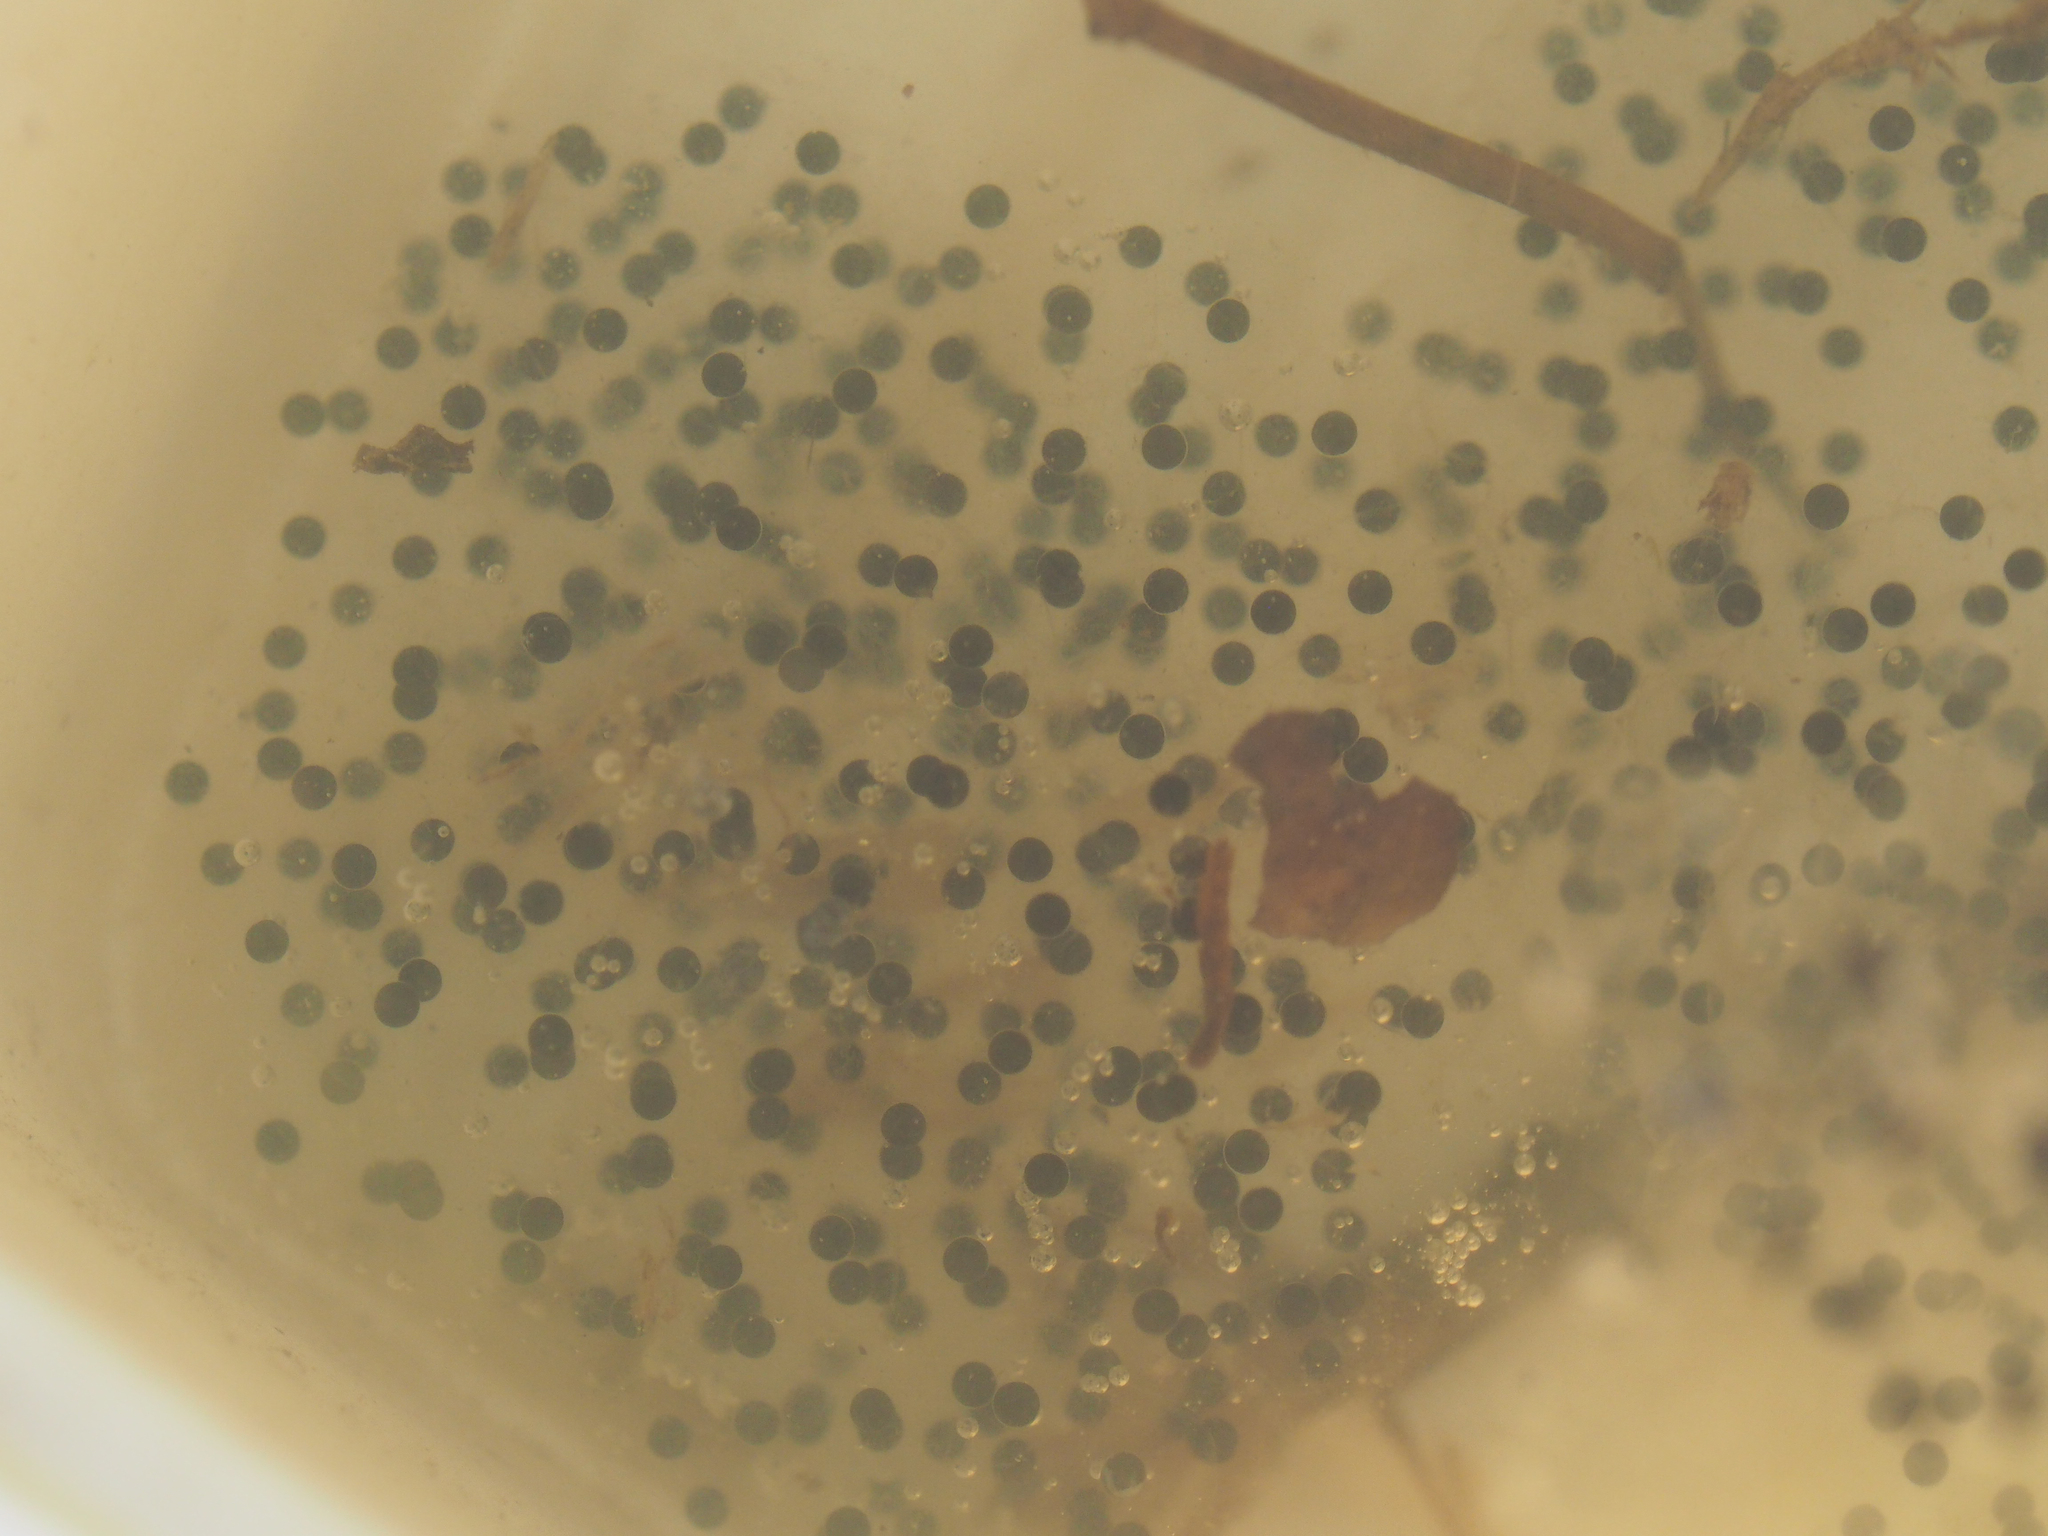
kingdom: Animalia
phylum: Chordata
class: Amphibia
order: Anura
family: Ranidae
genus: Lithobates
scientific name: Lithobates sylvaticus
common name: Wood frog
